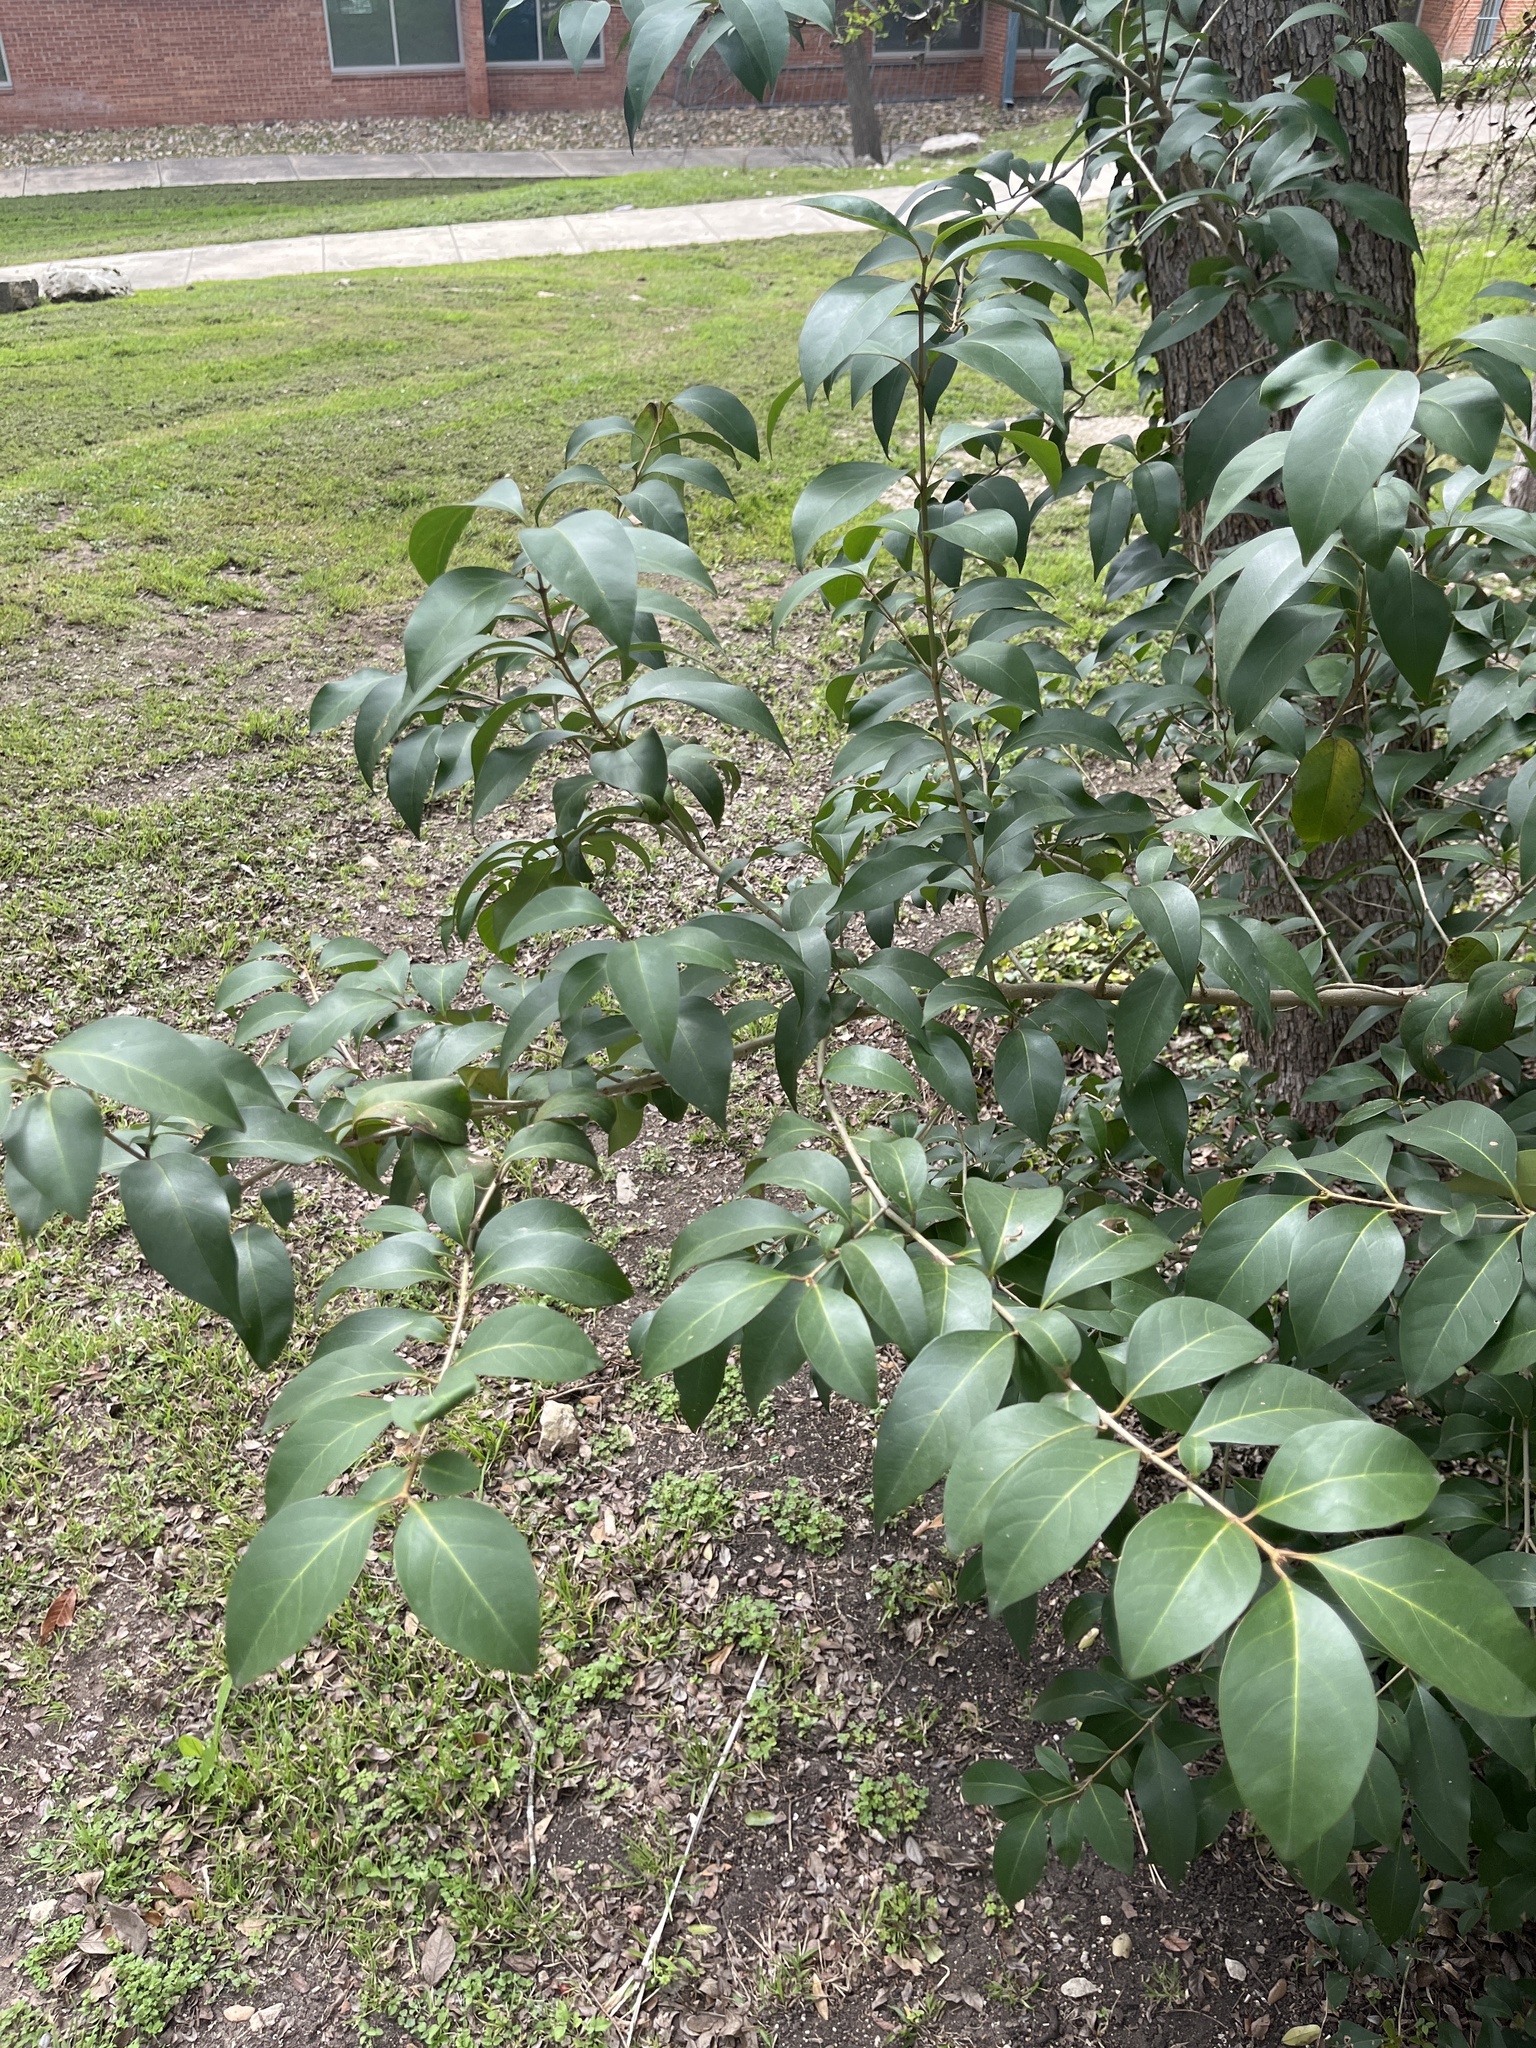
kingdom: Plantae
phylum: Tracheophyta
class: Magnoliopsida
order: Lamiales
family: Oleaceae
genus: Ligustrum
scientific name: Ligustrum lucidum
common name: Glossy privet
